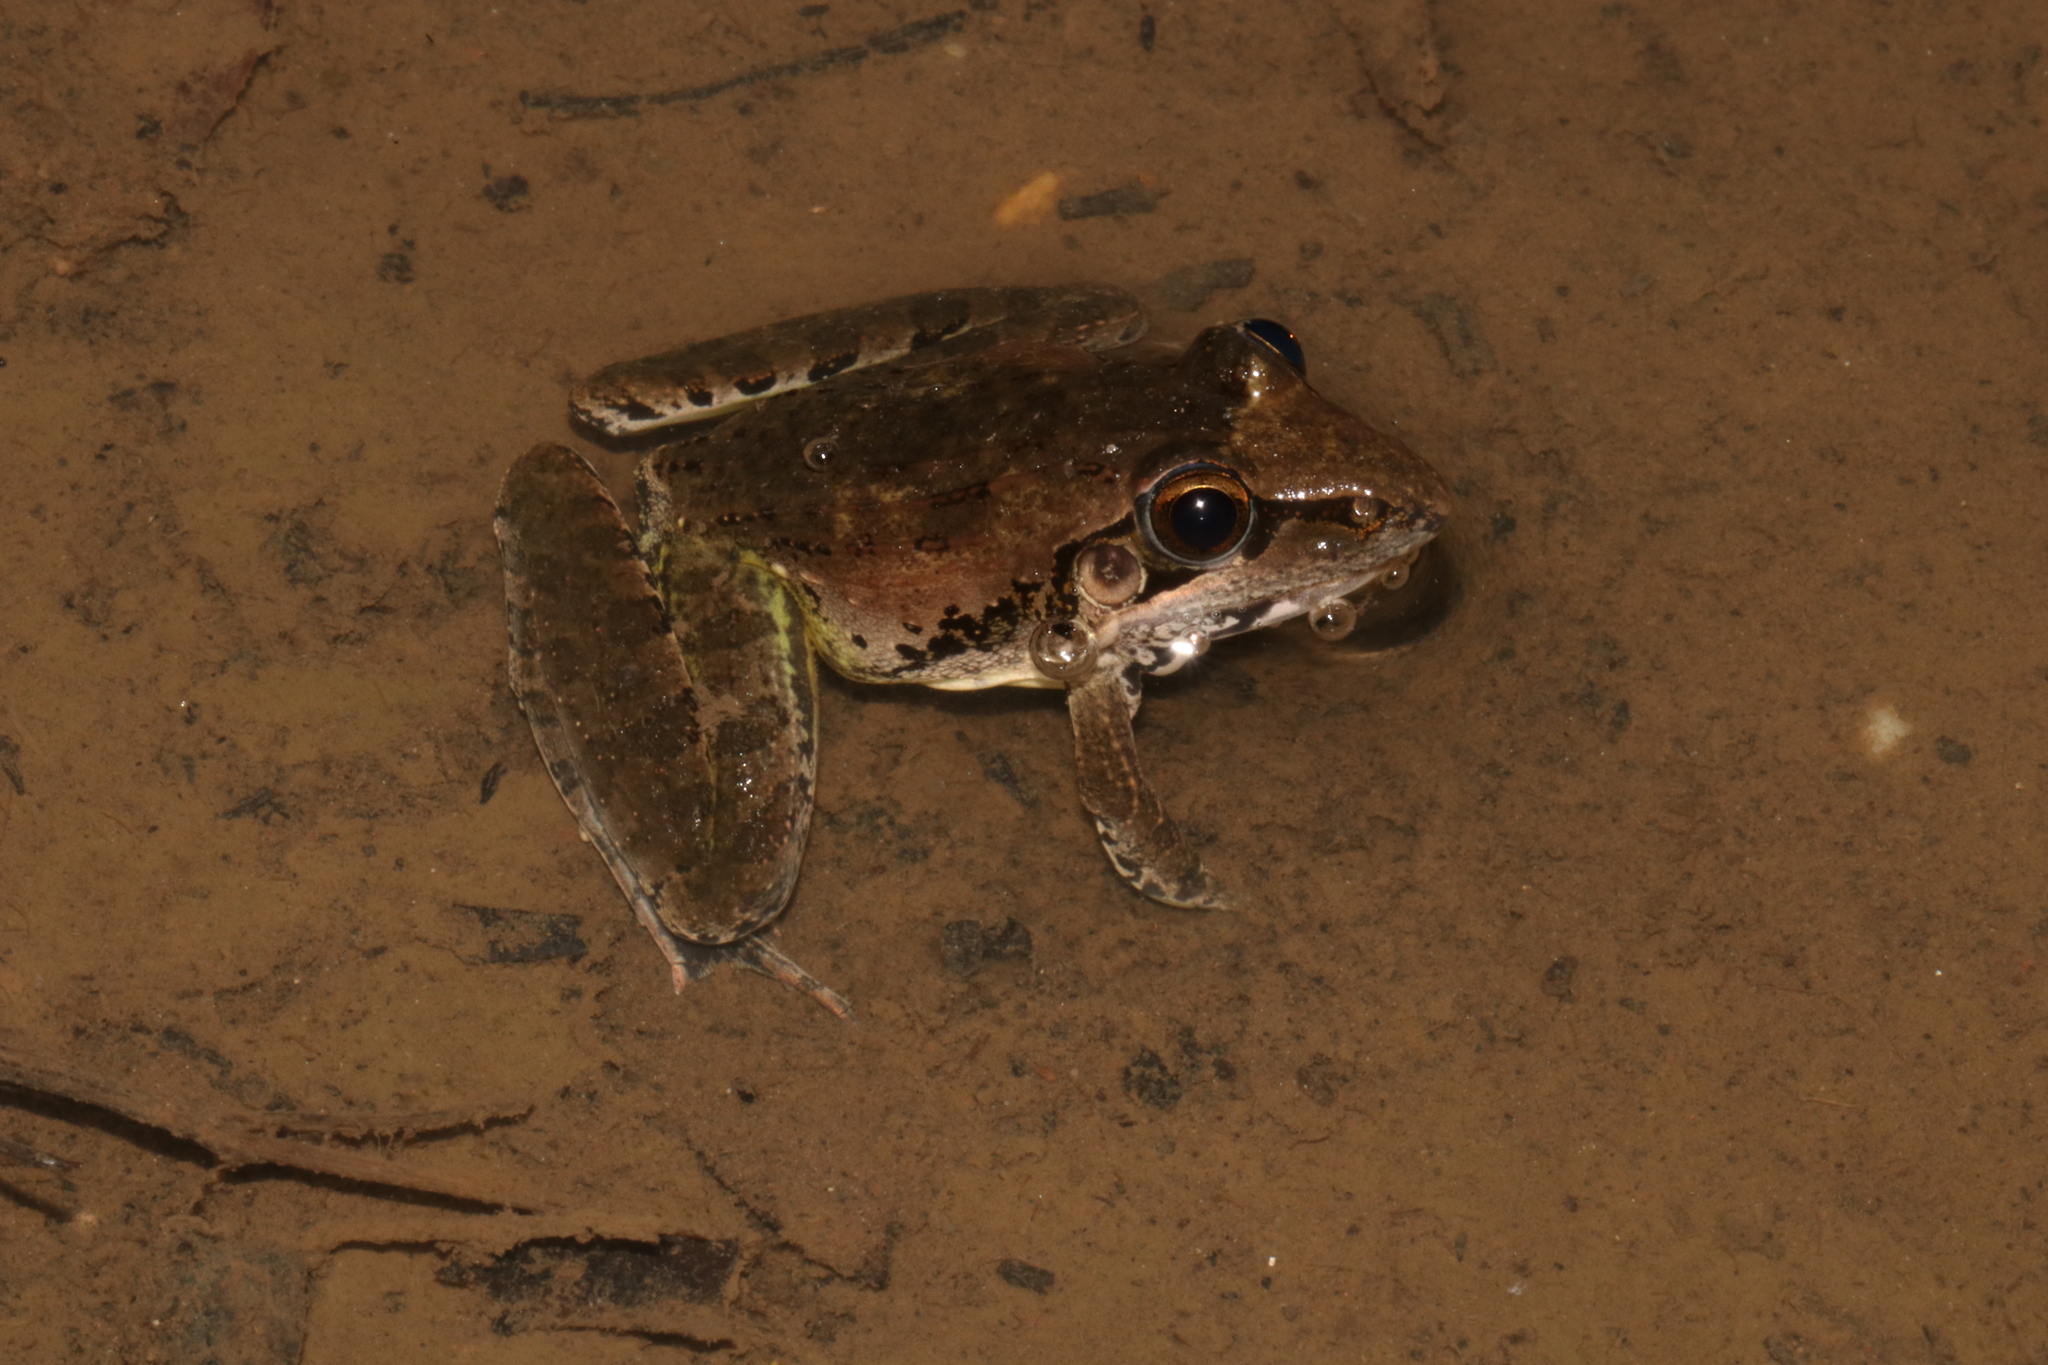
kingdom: Animalia
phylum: Chordata
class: Amphibia
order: Anura
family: Ptychadenidae
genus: Ptychadena
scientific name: Ptychadena anchietae
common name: Anchieta's ridged frog
